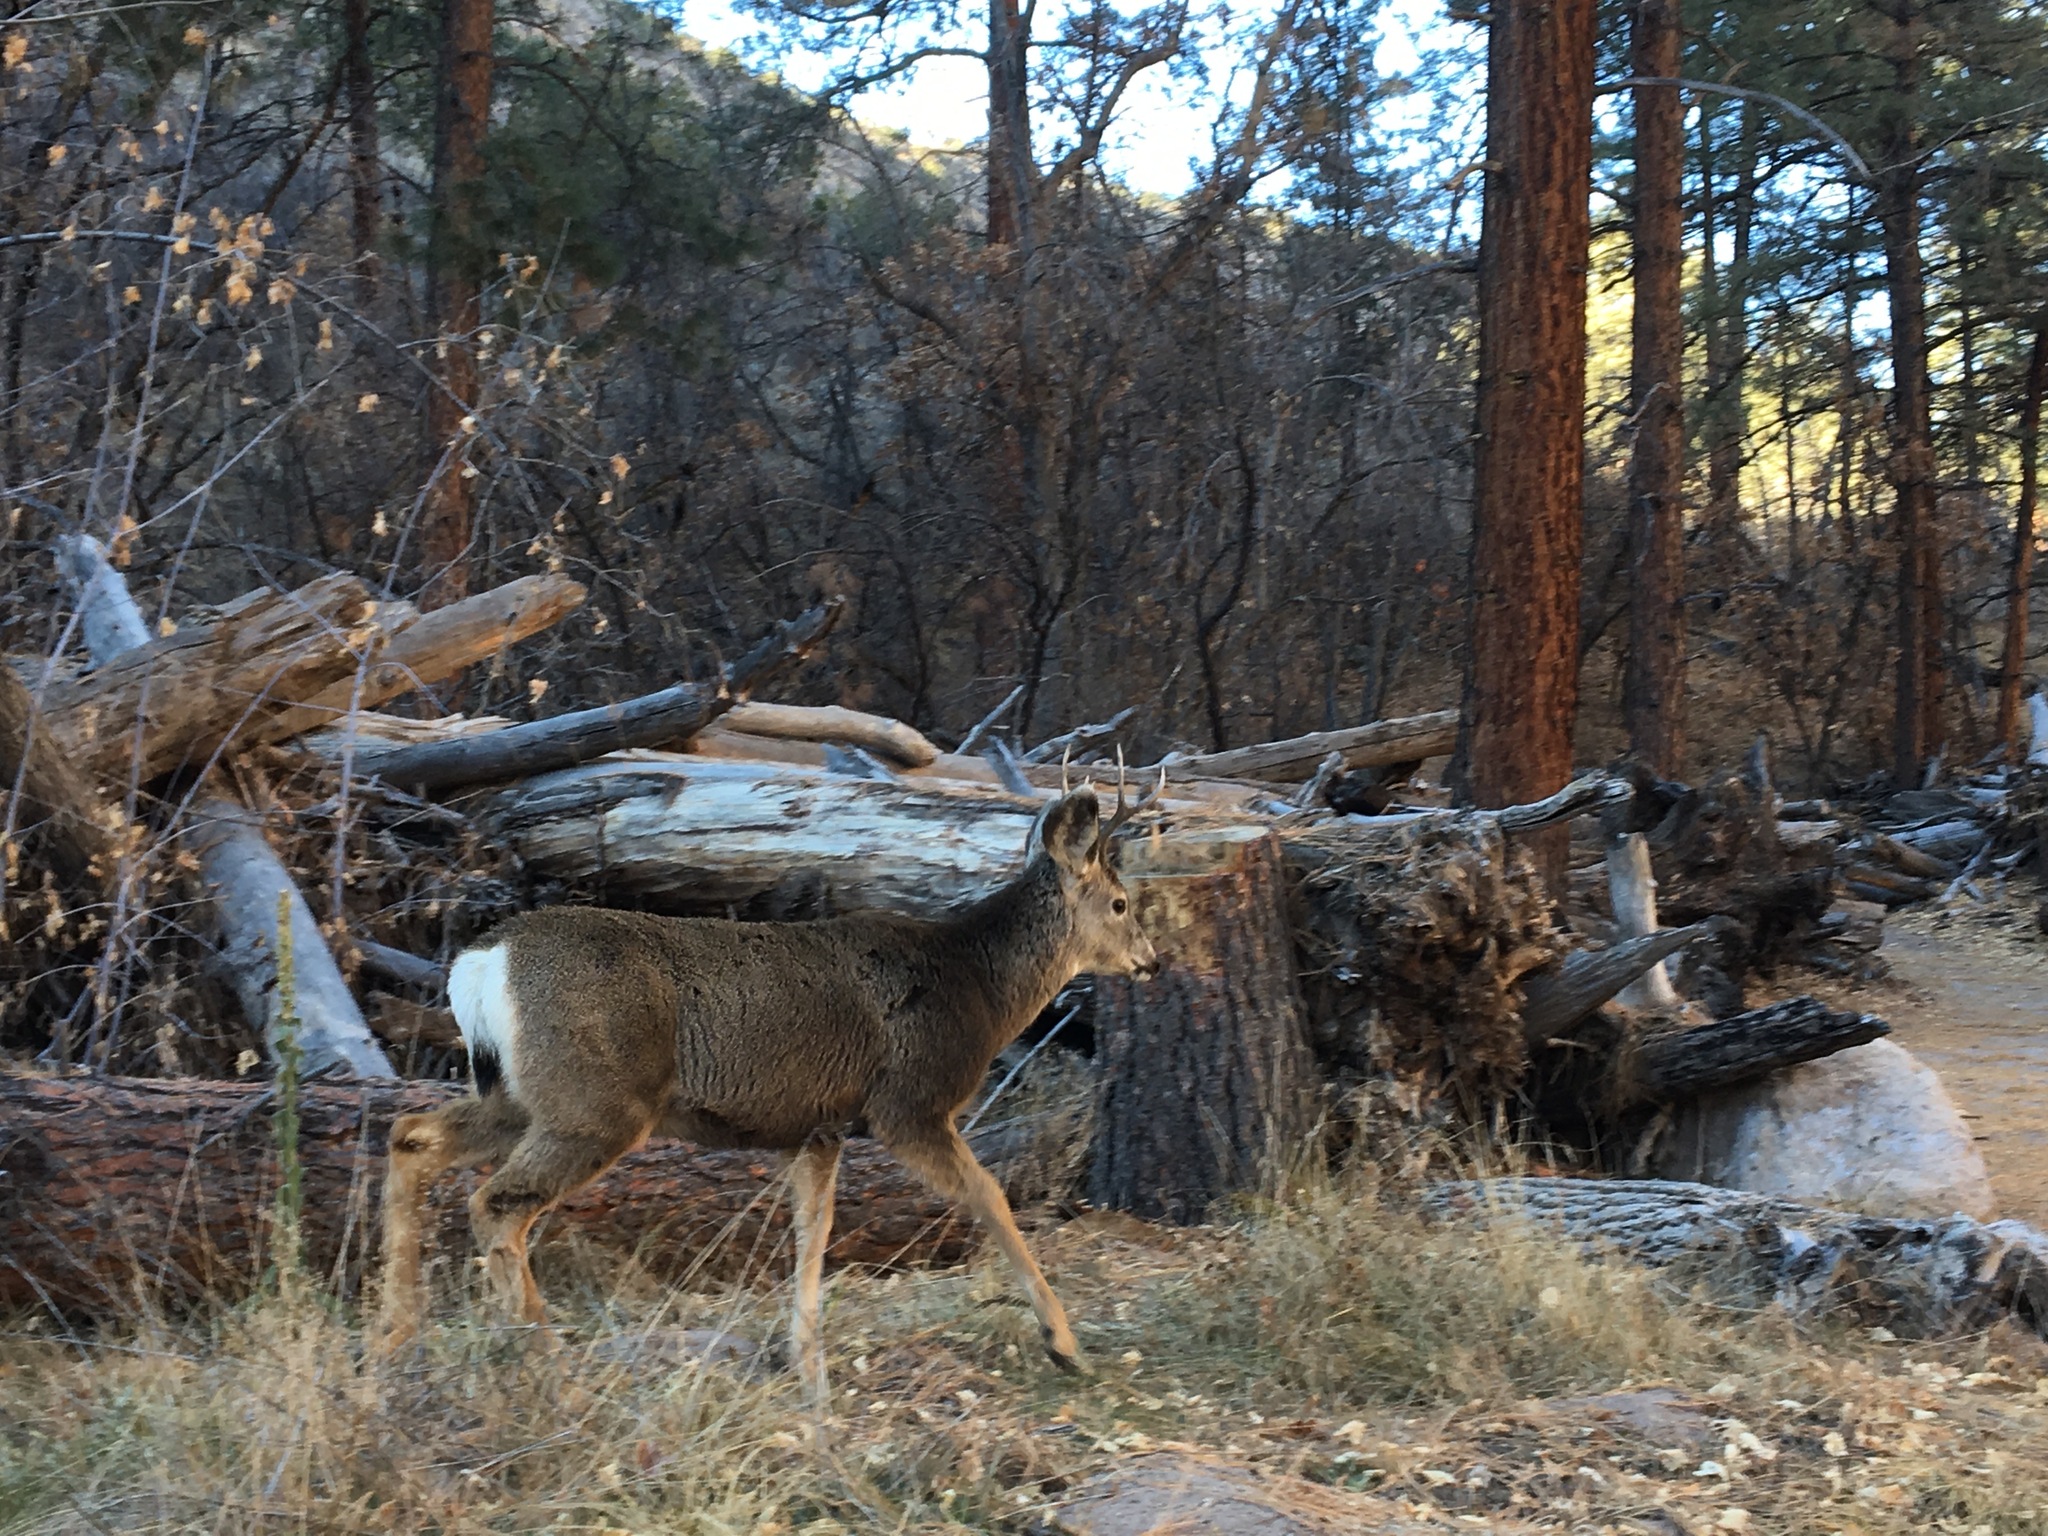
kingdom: Animalia
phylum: Chordata
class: Mammalia
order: Artiodactyla
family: Cervidae
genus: Odocoileus
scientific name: Odocoileus hemionus
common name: Mule deer
